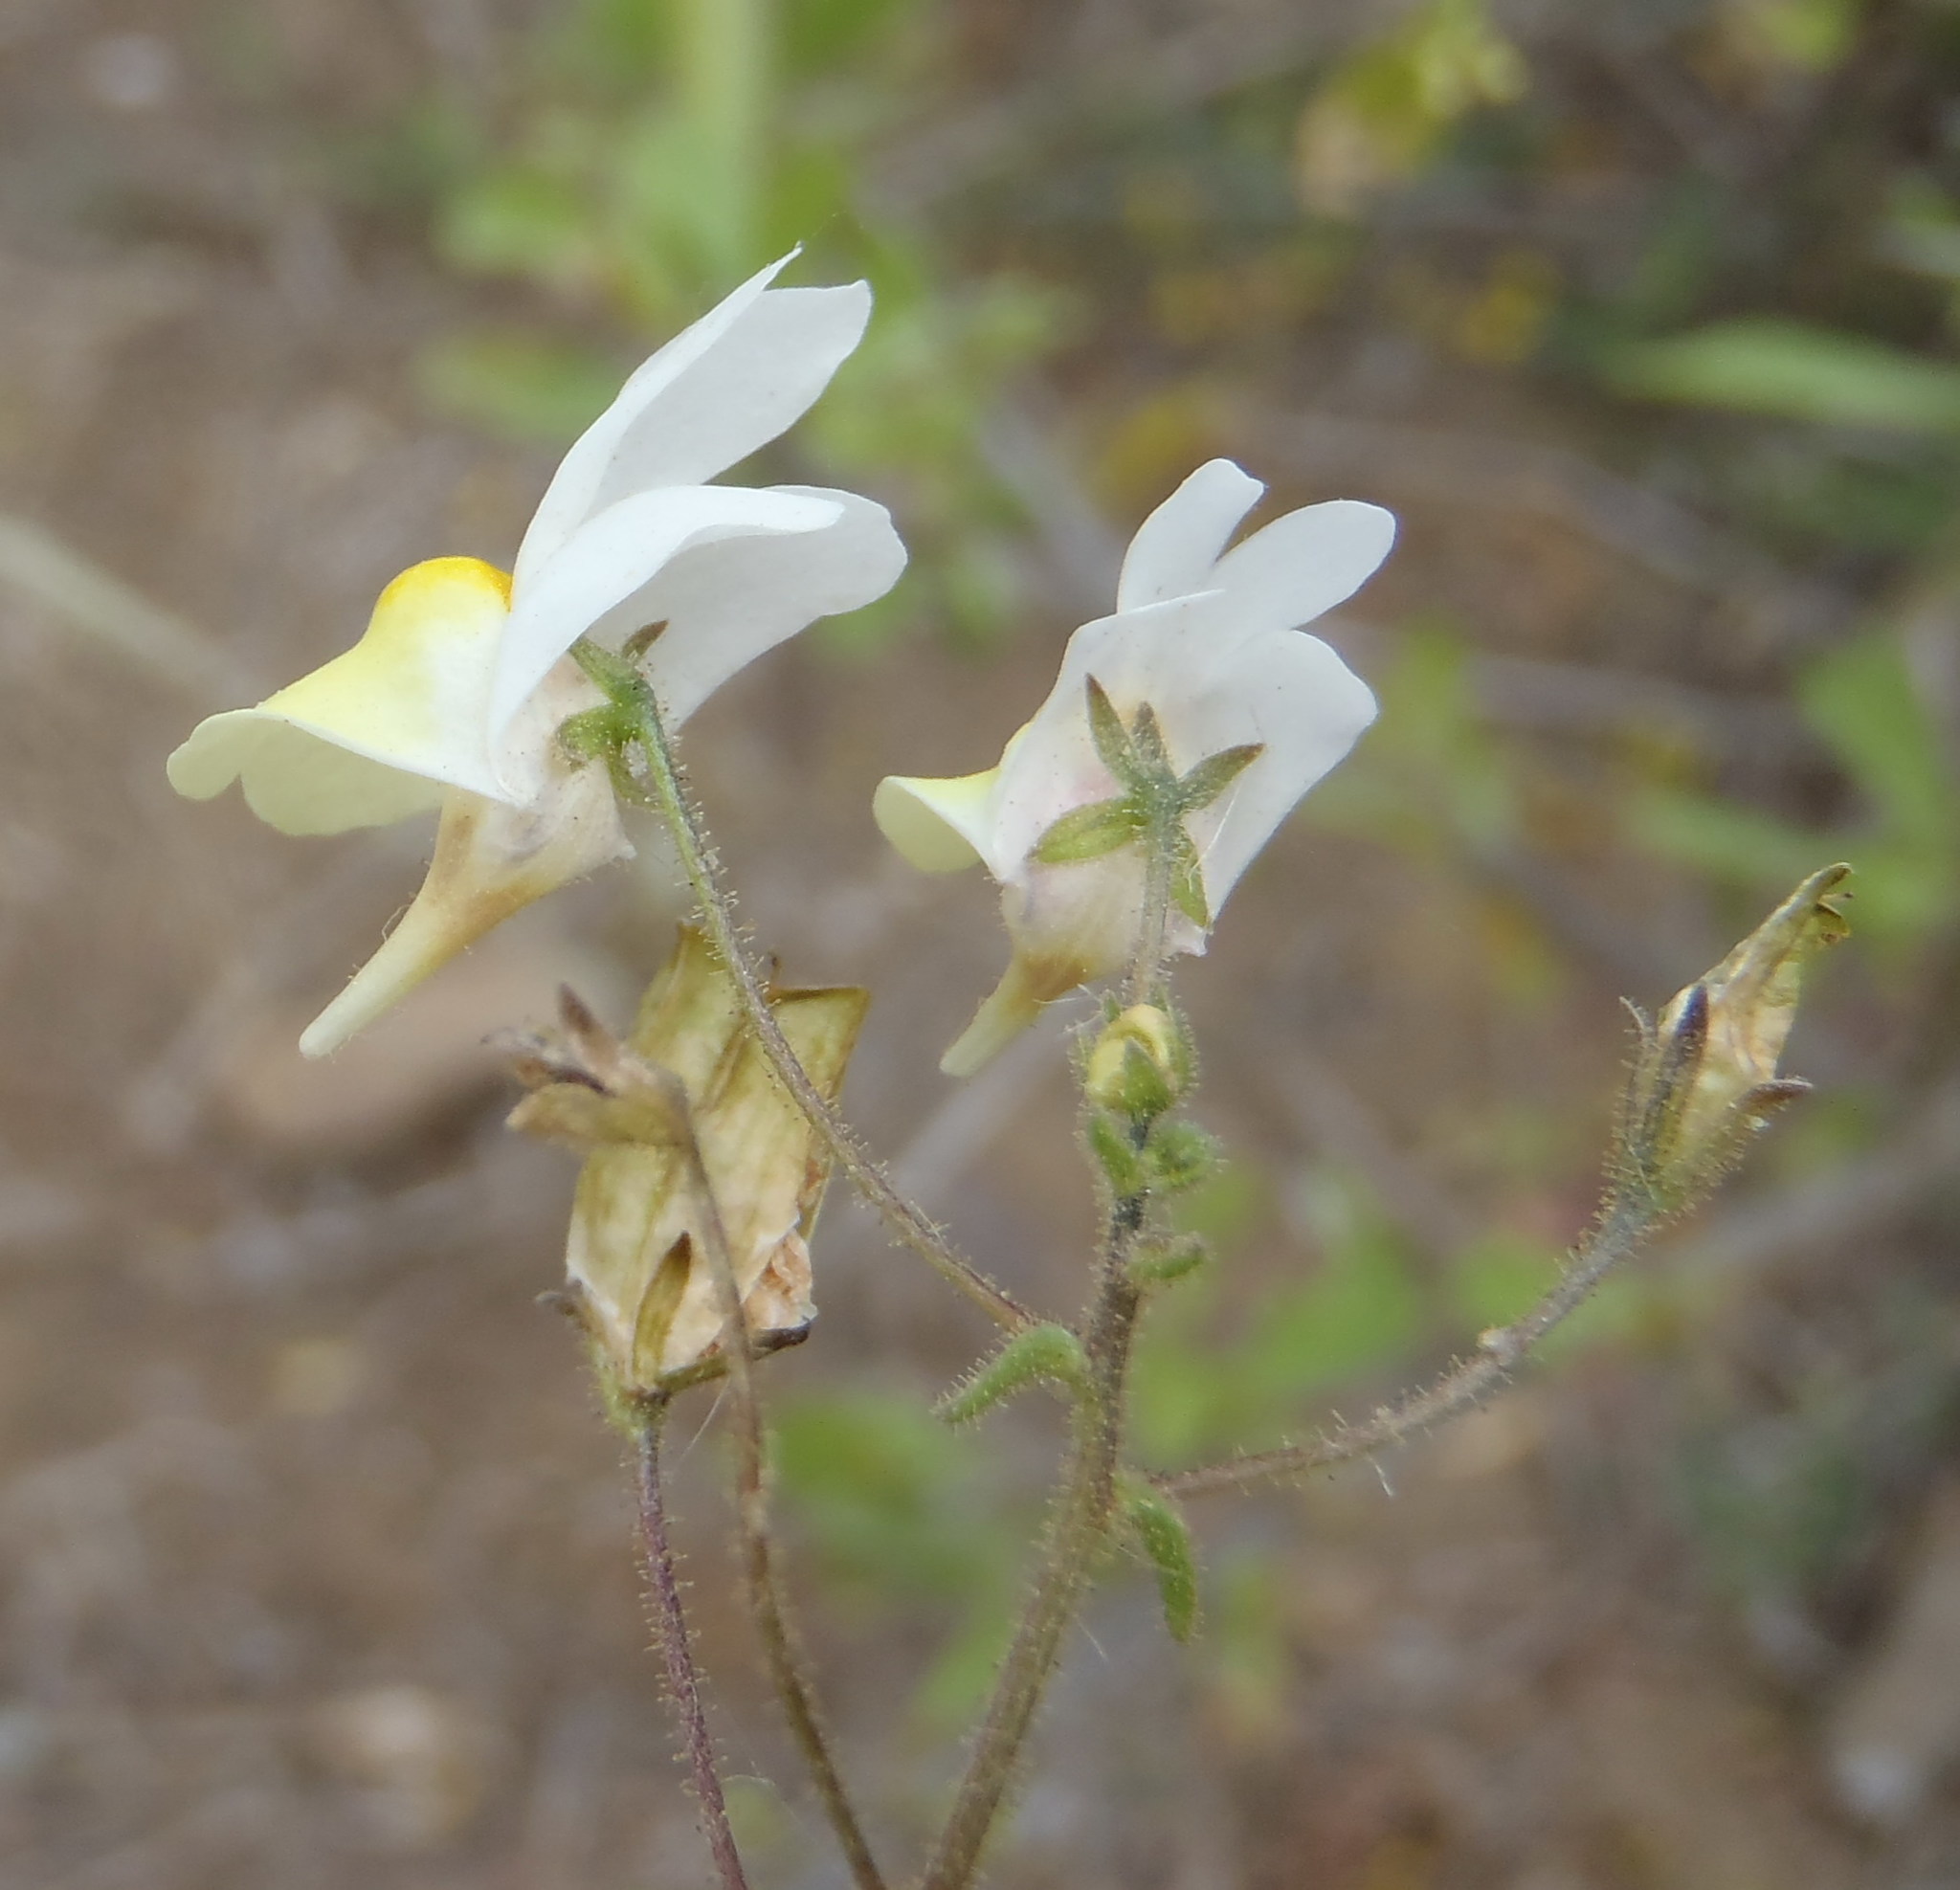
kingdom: Plantae
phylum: Tracheophyta
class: Magnoliopsida
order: Lamiales
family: Scrophulariaceae
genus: Nemesia
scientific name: Nemesia ligulata
